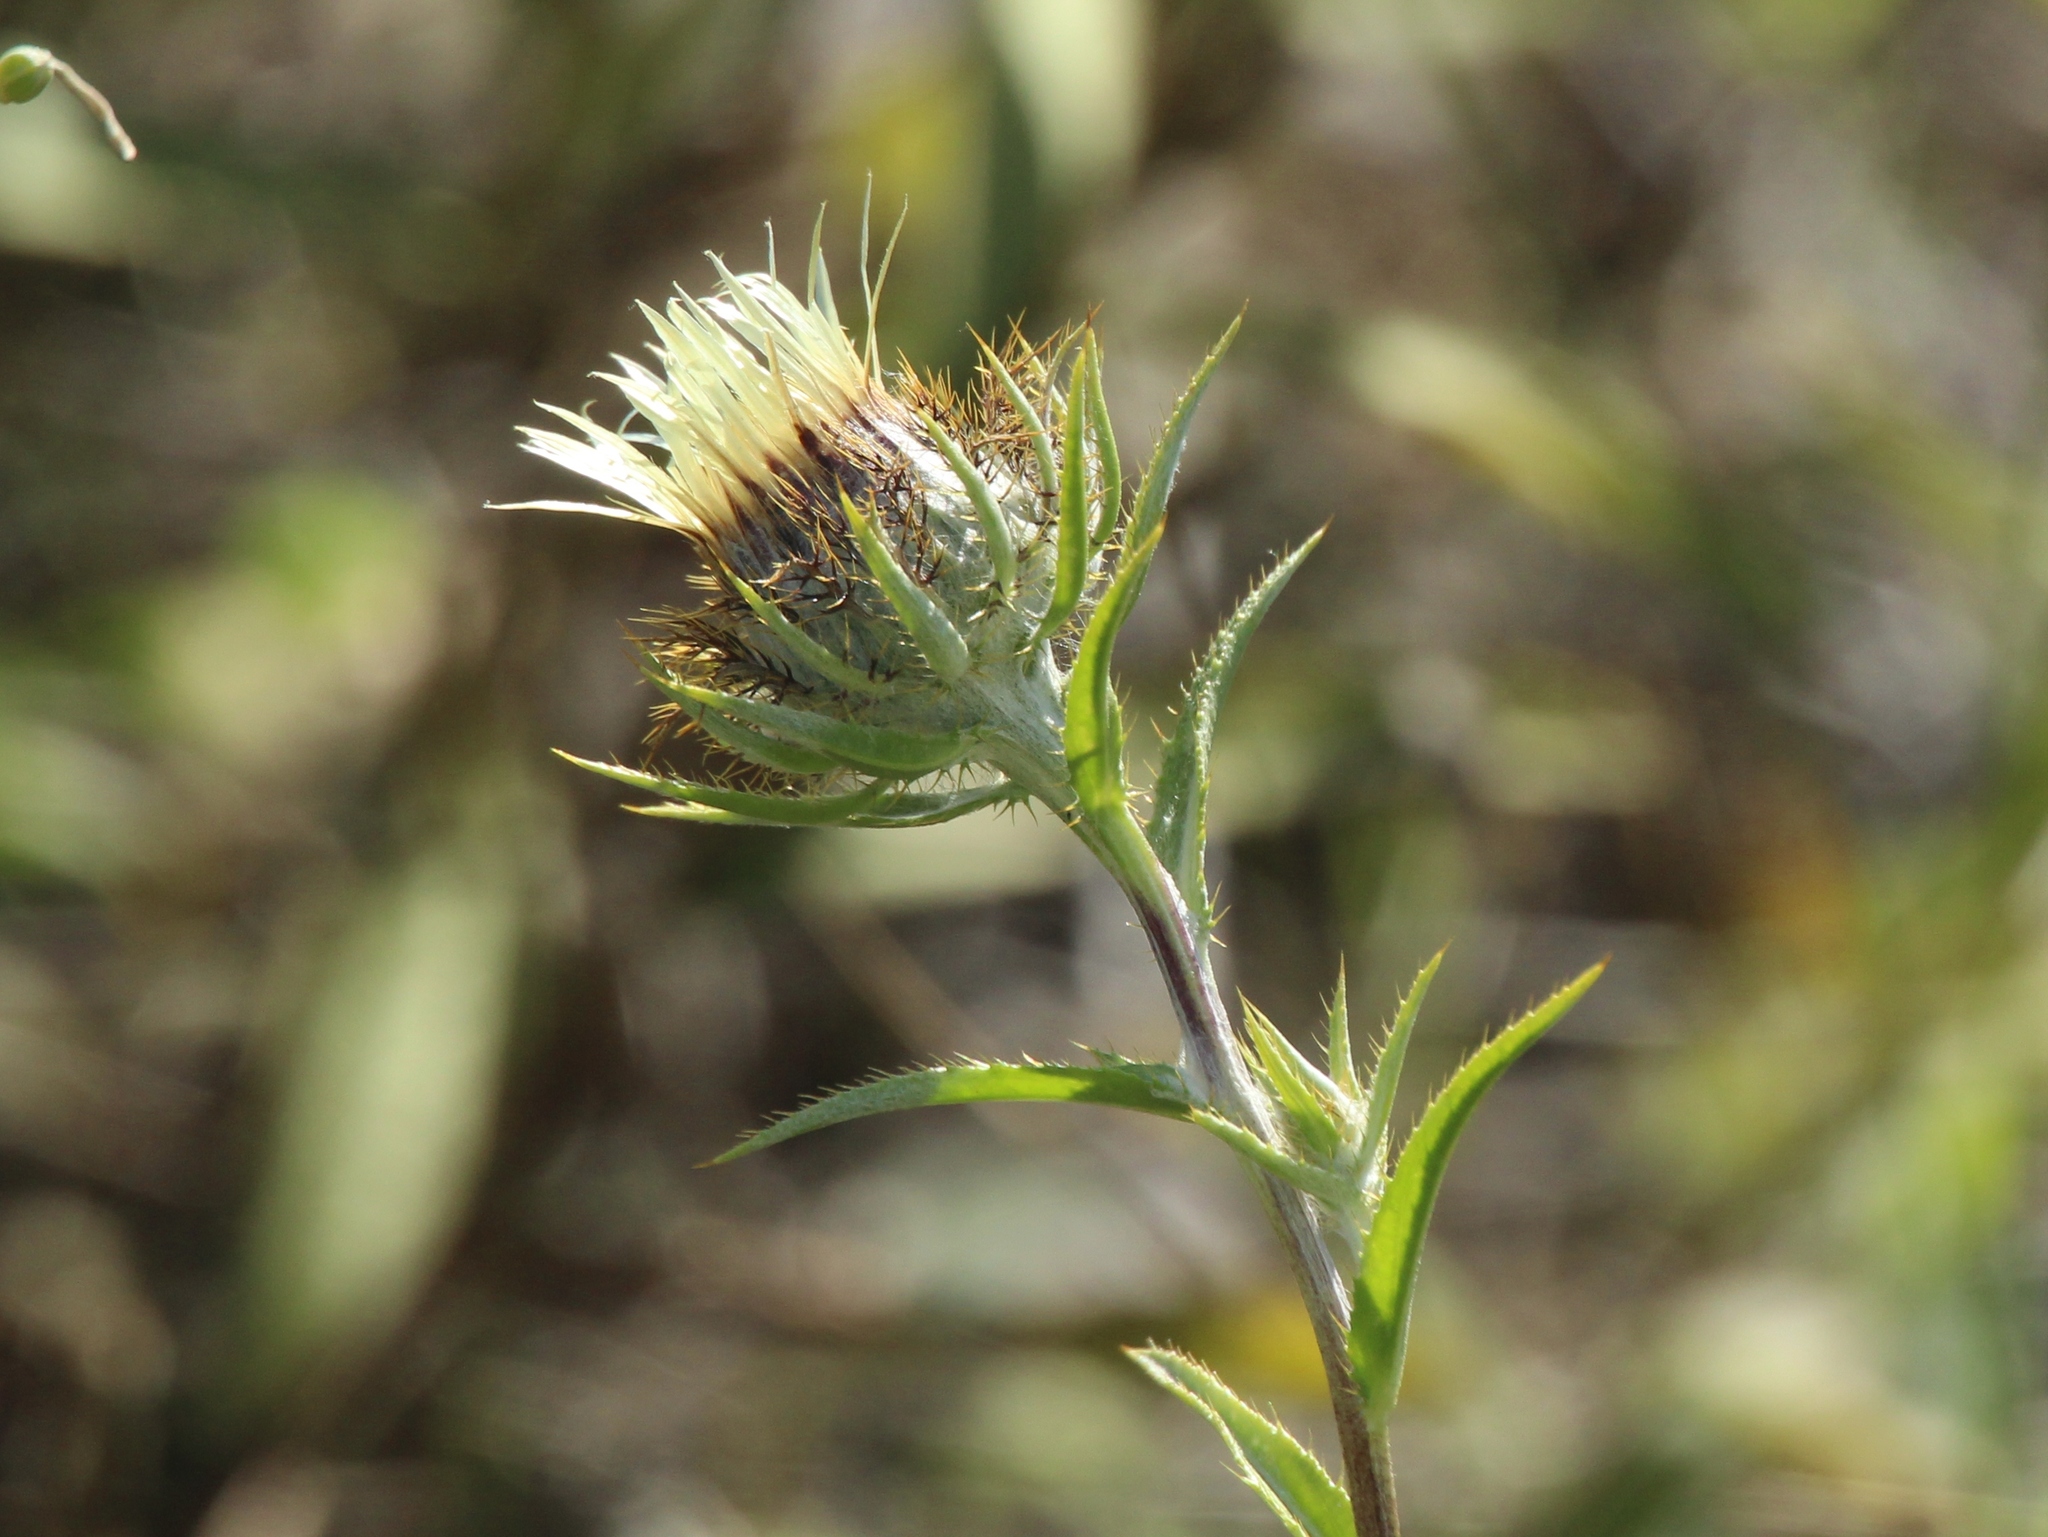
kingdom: Plantae
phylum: Tracheophyta
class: Magnoliopsida
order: Asterales
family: Asteraceae
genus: Carlina
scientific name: Carlina biebersteinii
